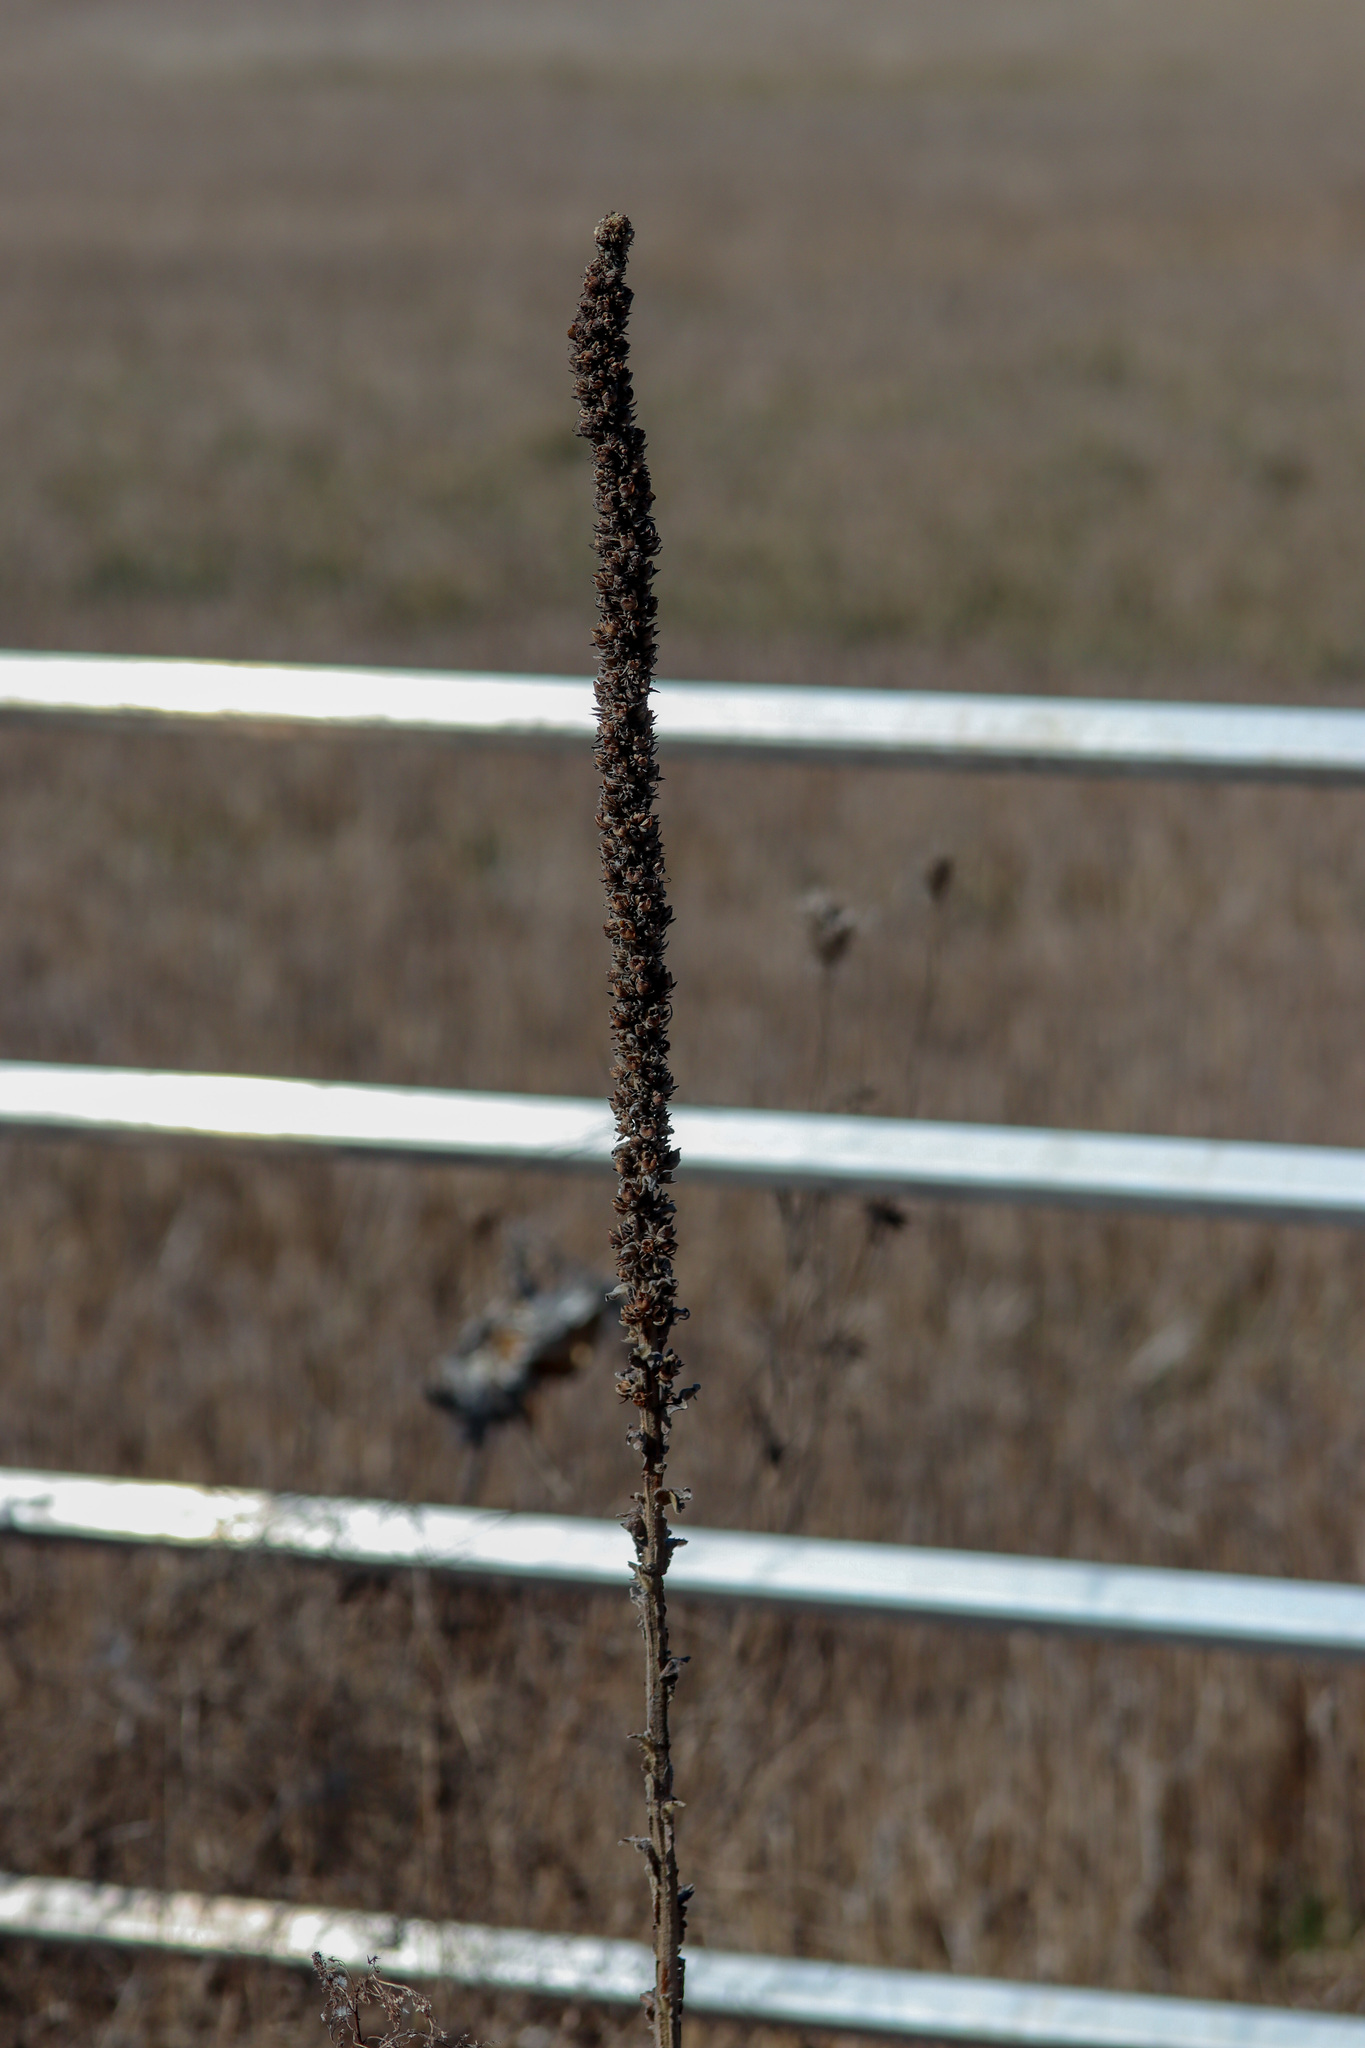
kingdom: Plantae
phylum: Tracheophyta
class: Magnoliopsida
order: Lamiales
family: Scrophulariaceae
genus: Verbascum
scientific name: Verbascum thapsus
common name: Common mullein
